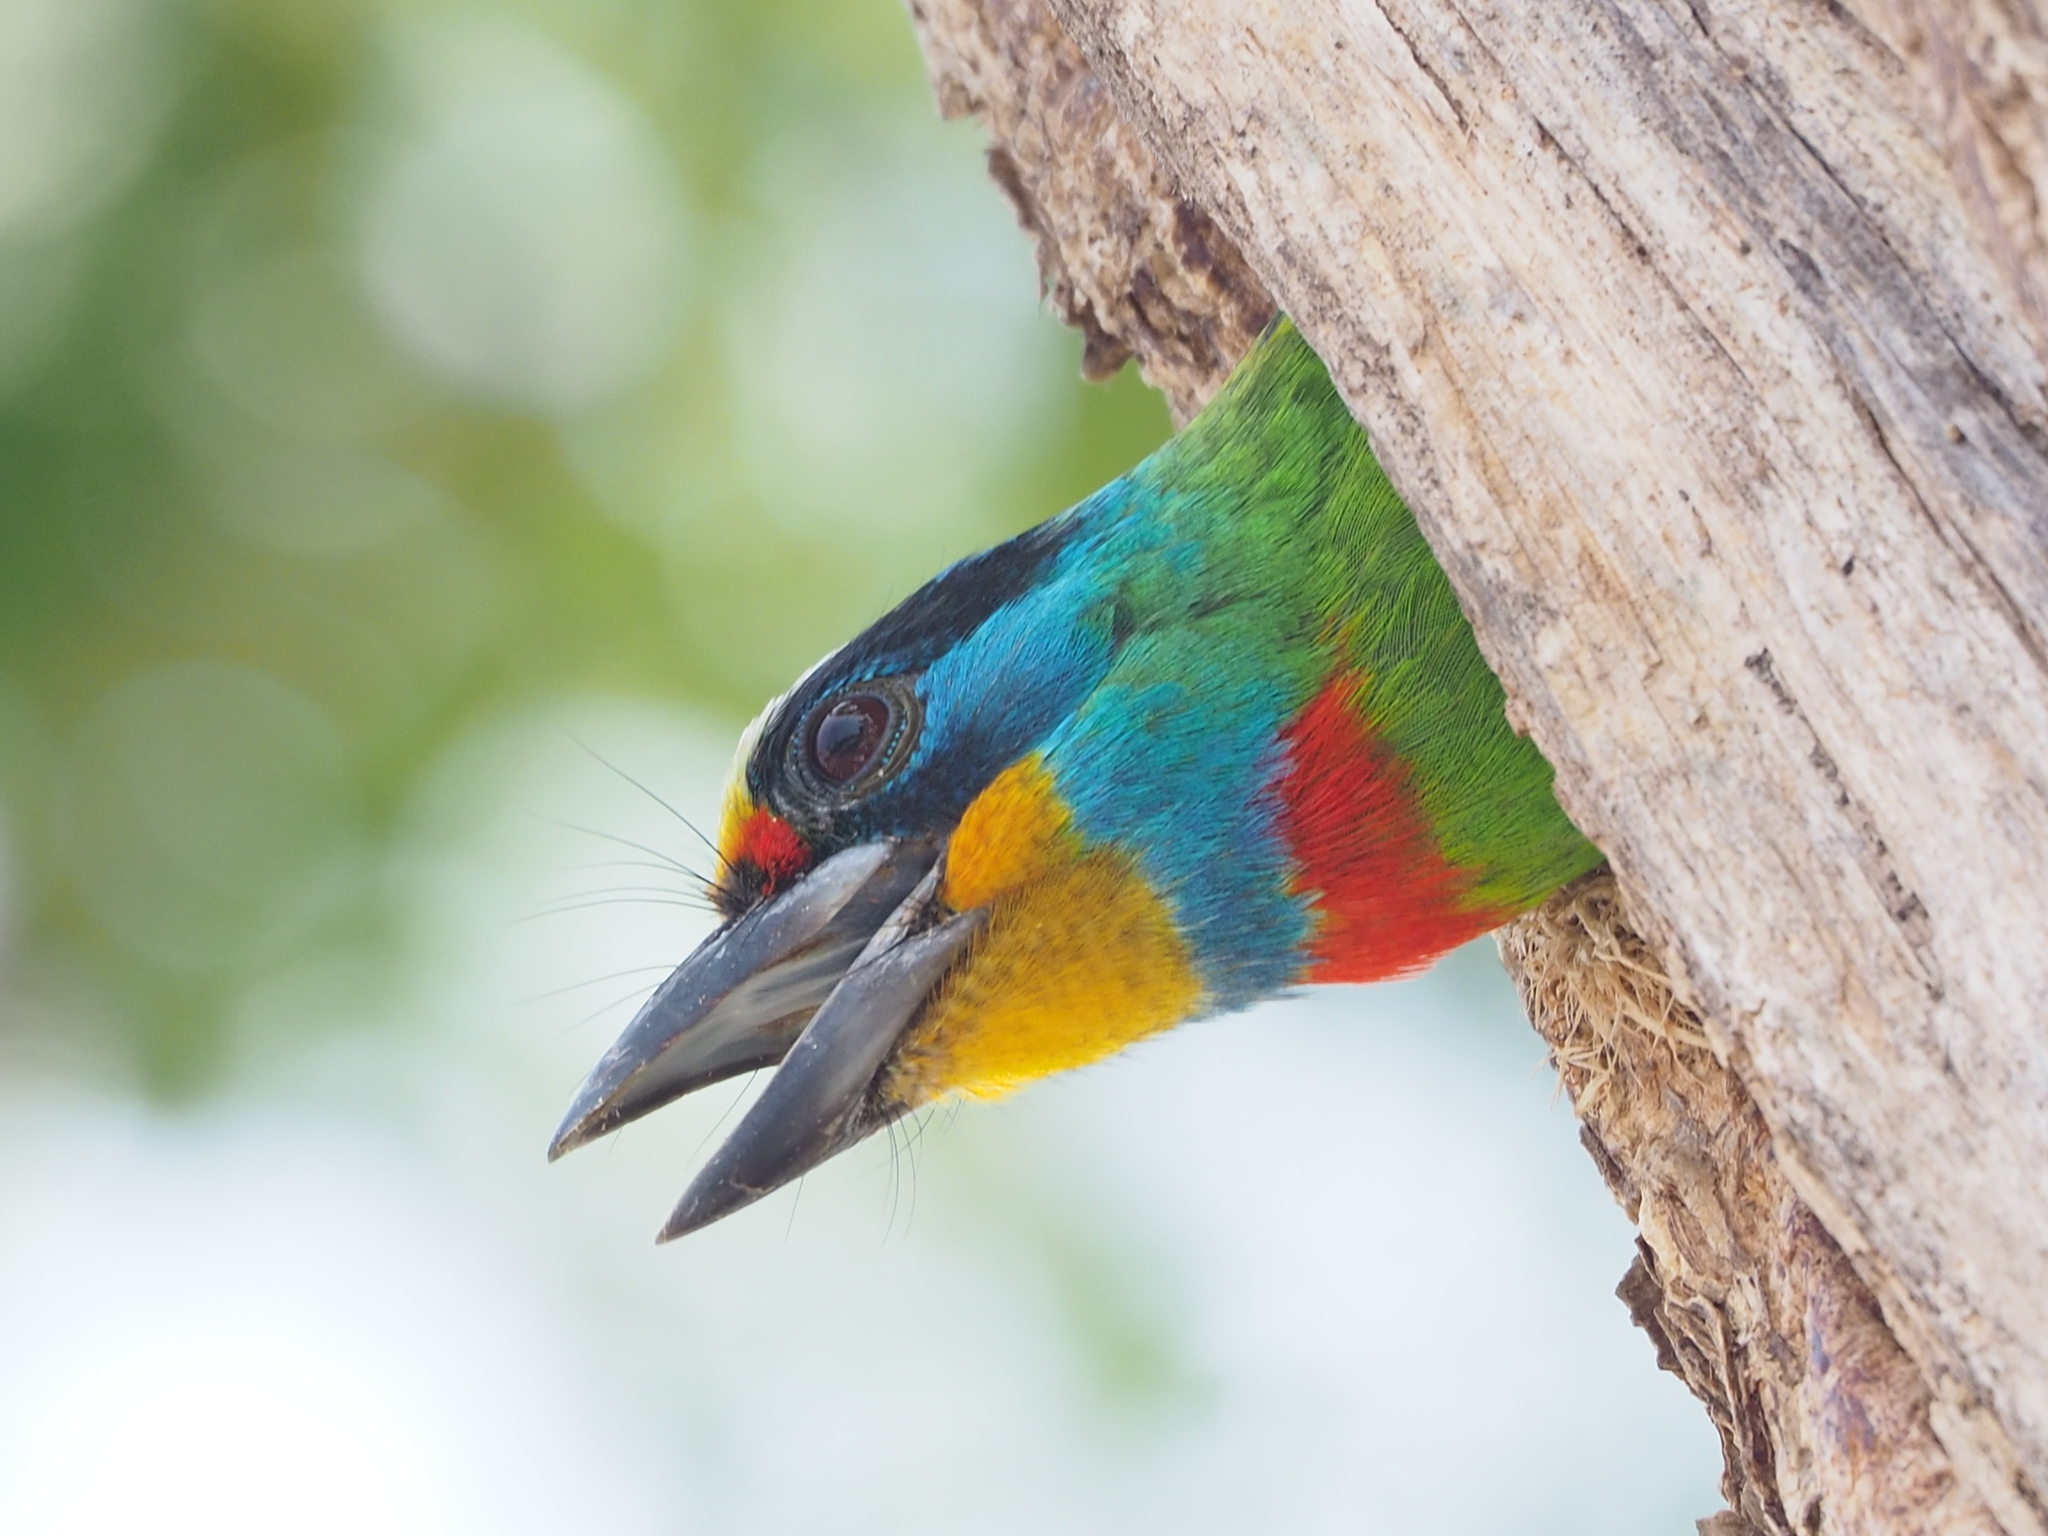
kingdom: Animalia
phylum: Chordata
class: Aves
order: Piciformes
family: Megalaimidae
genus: Psilopogon
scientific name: Psilopogon nuchalis
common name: Taiwan barbet
